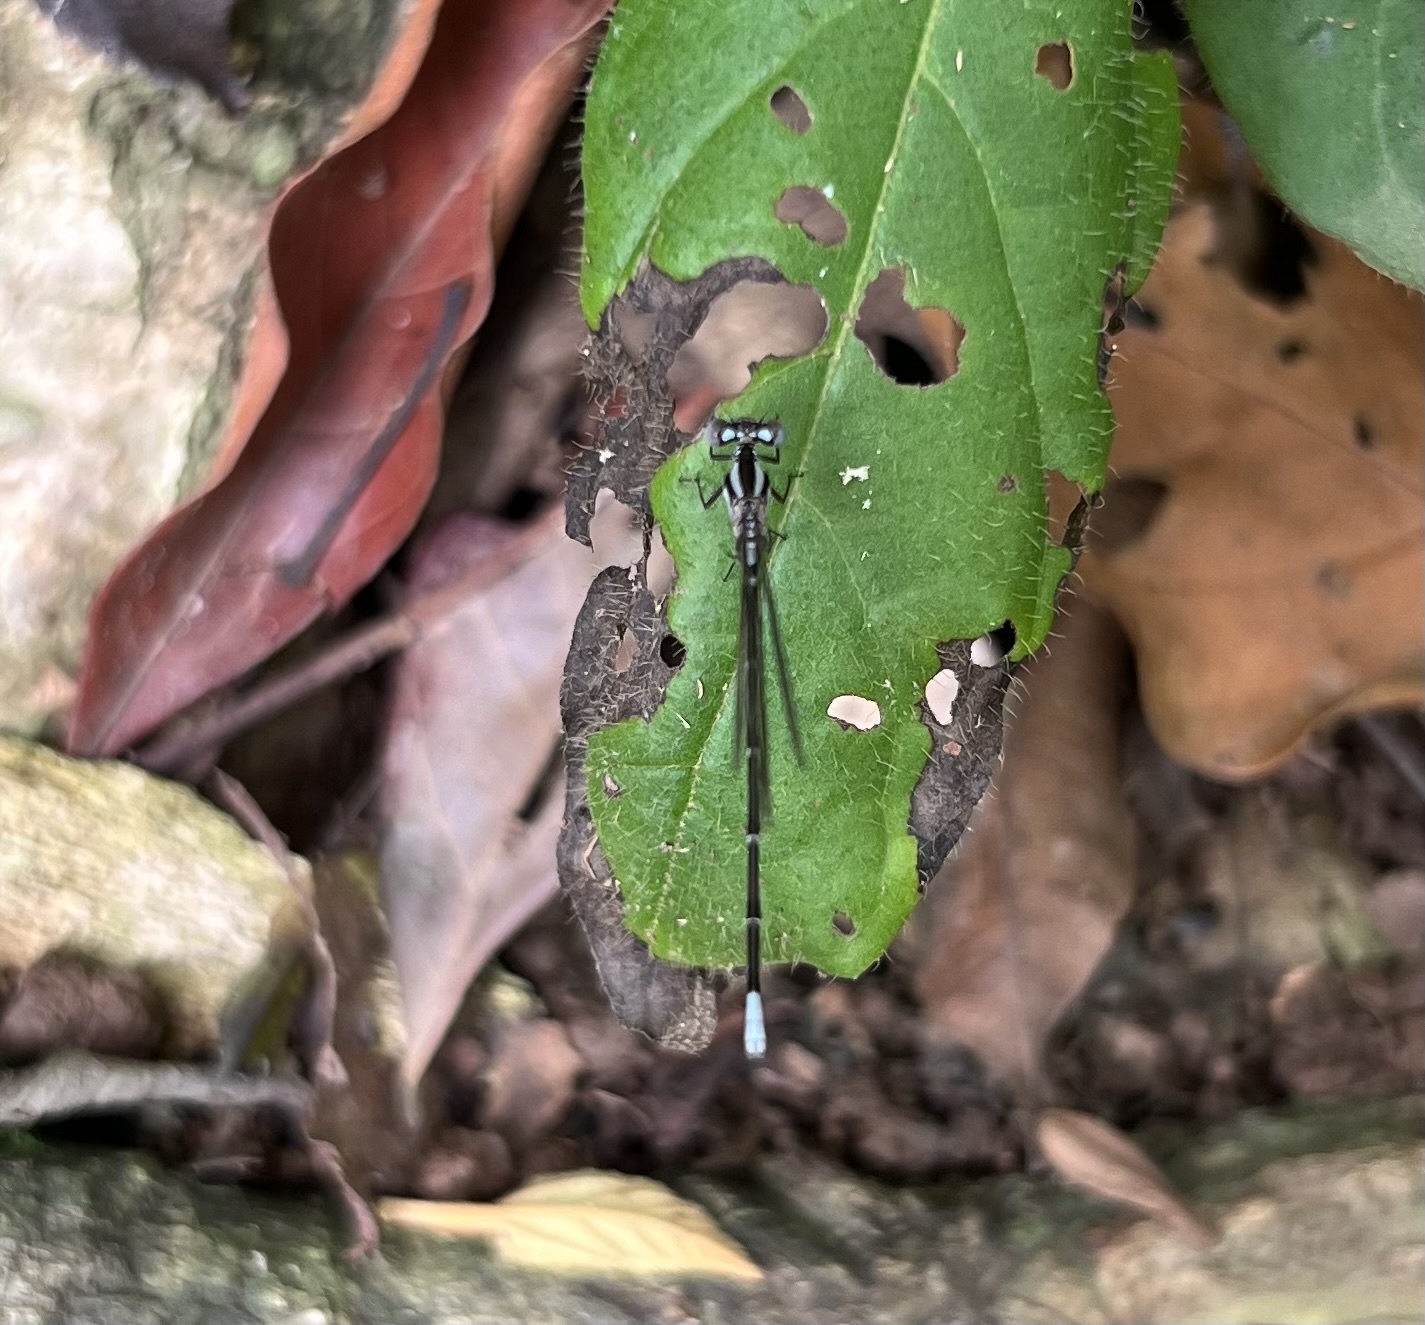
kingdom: Animalia
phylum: Arthropoda
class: Insecta
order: Odonata
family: Coenagrionidae
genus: Argia
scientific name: Argia pulla
